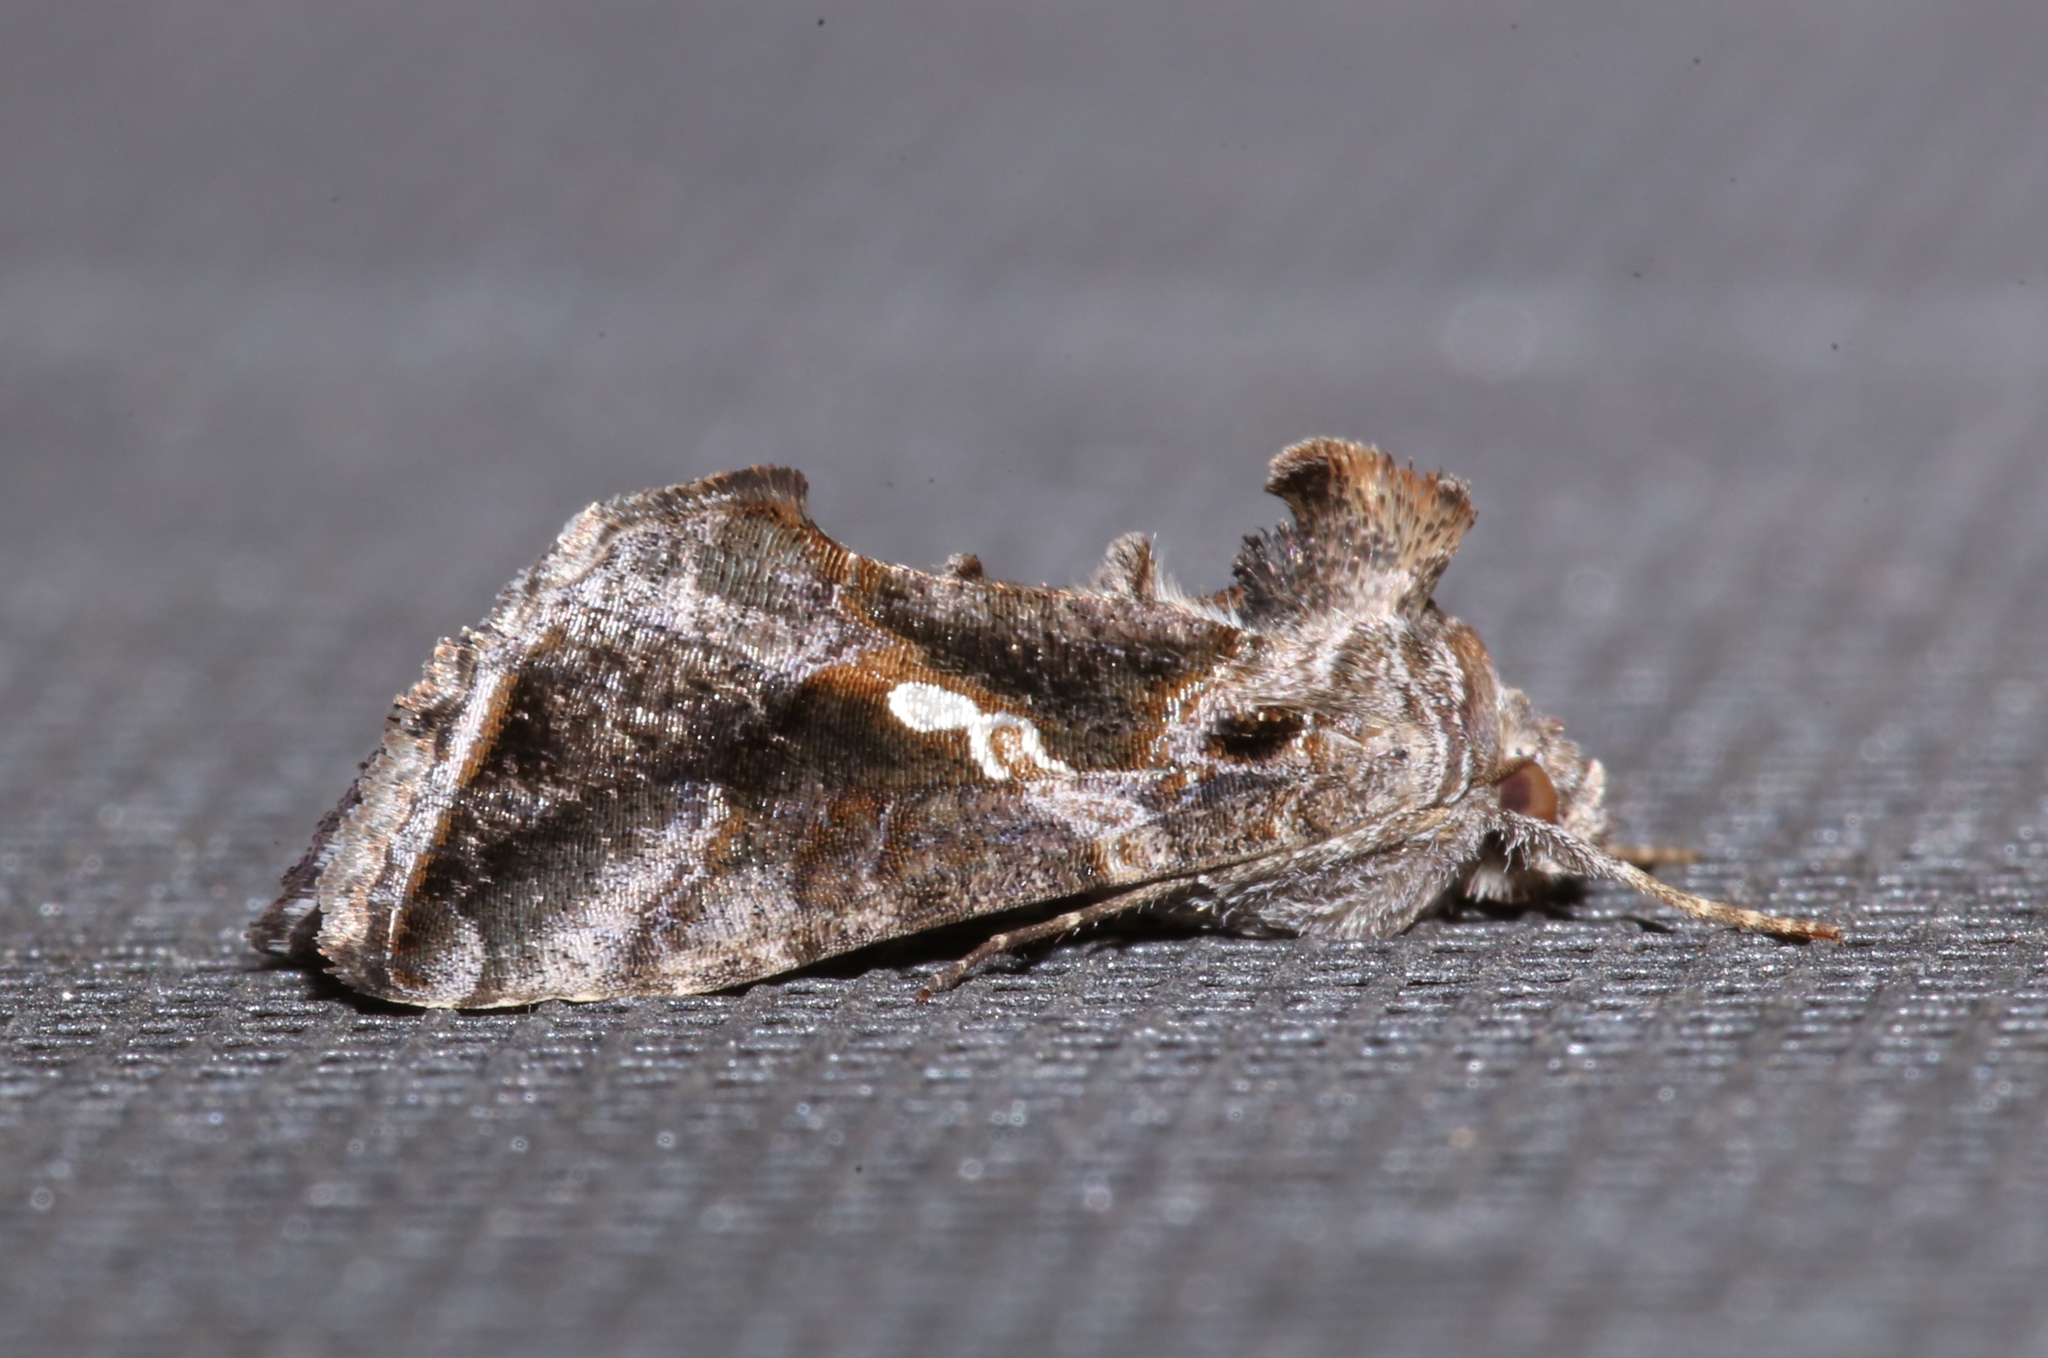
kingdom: Animalia
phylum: Arthropoda
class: Insecta
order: Lepidoptera
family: Noctuidae
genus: Chrysodeixis
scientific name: Chrysodeixis includens
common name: Cutworm moth
